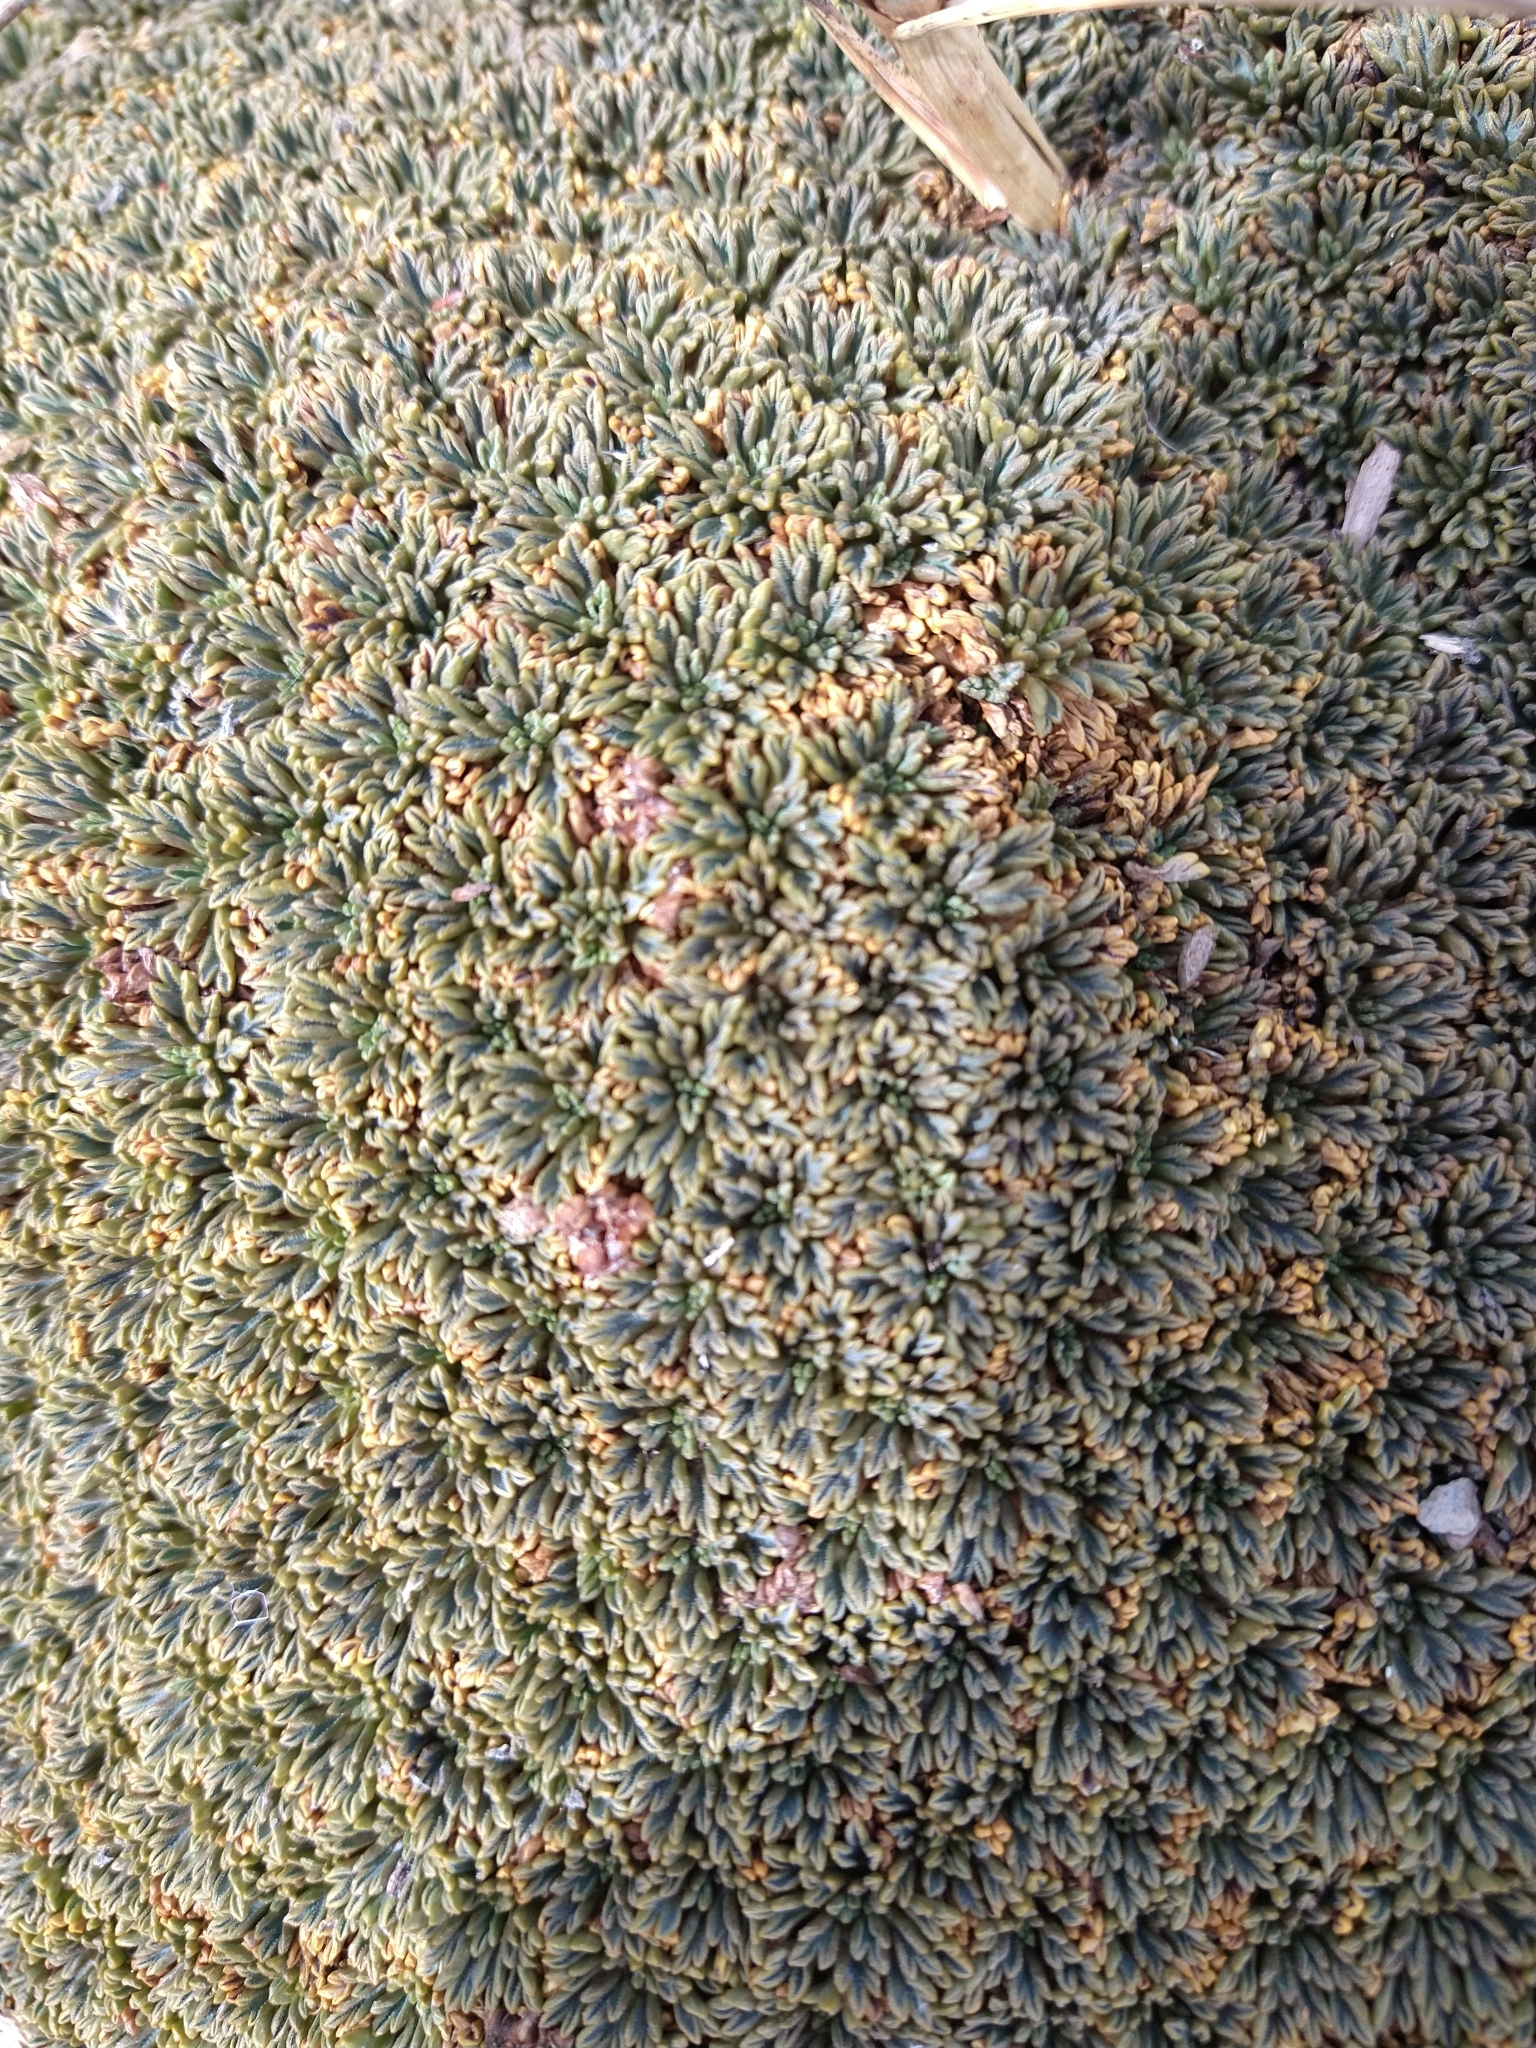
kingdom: Plantae
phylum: Tracheophyta
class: Magnoliopsida
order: Apiales
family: Apiaceae
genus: Bolax
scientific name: Bolax gummifera
